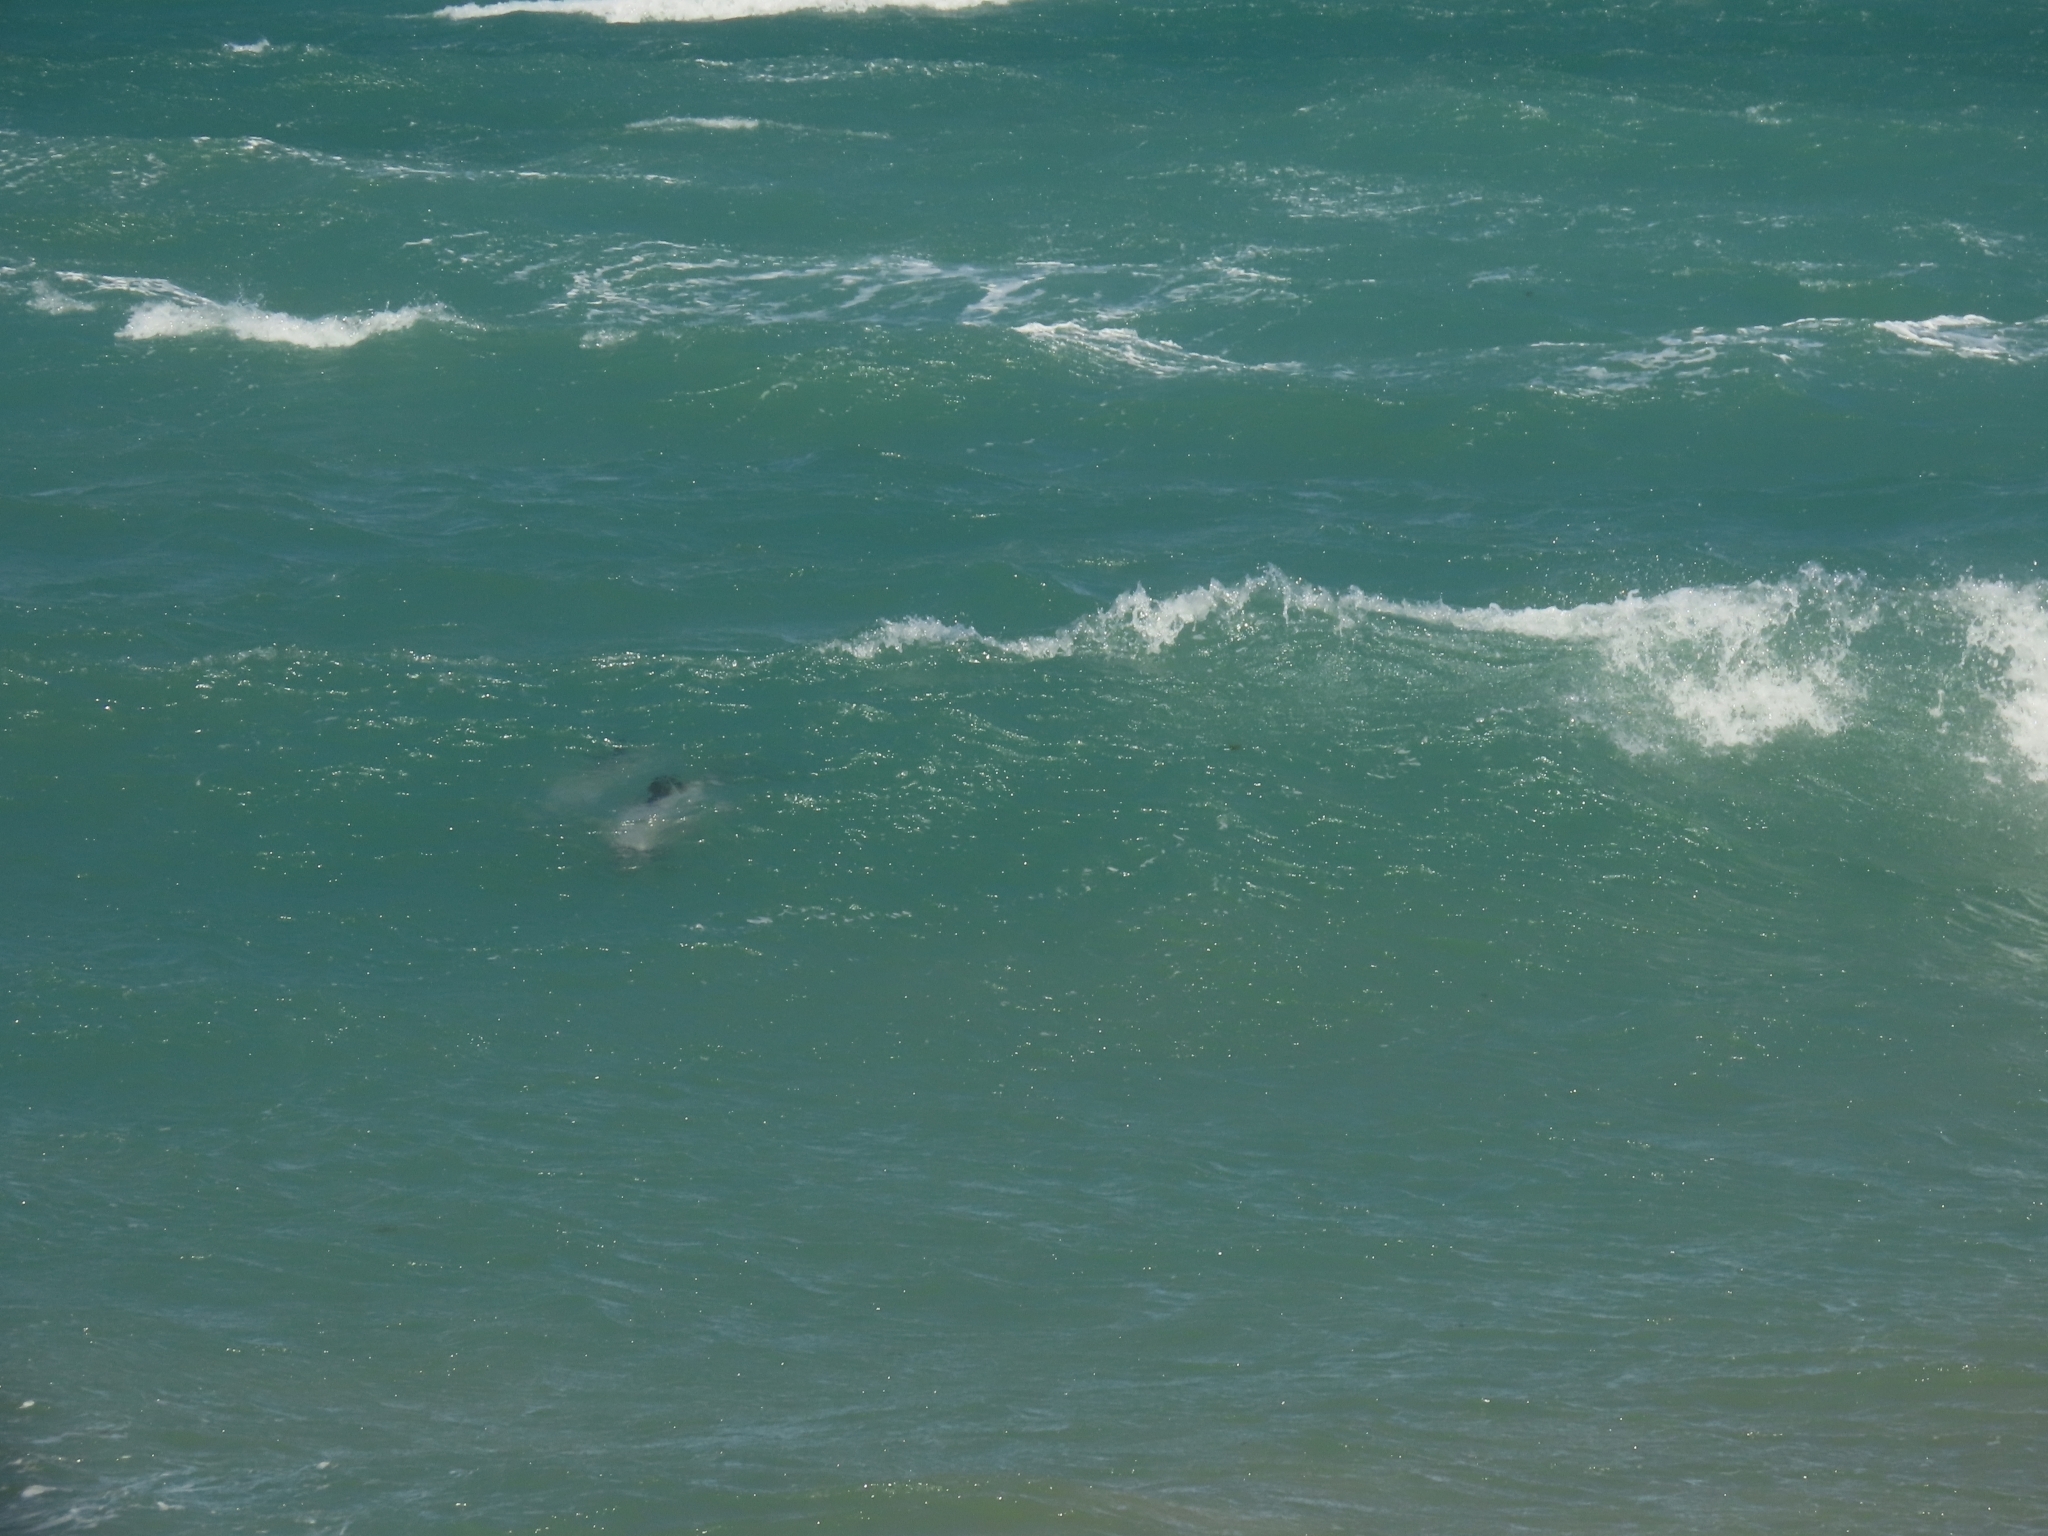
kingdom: Animalia
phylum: Chordata
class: Mammalia
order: Cetacea
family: Delphinidae
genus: Cephalorhynchus
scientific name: Cephalorhynchus hectori
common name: Hector's dolphin
